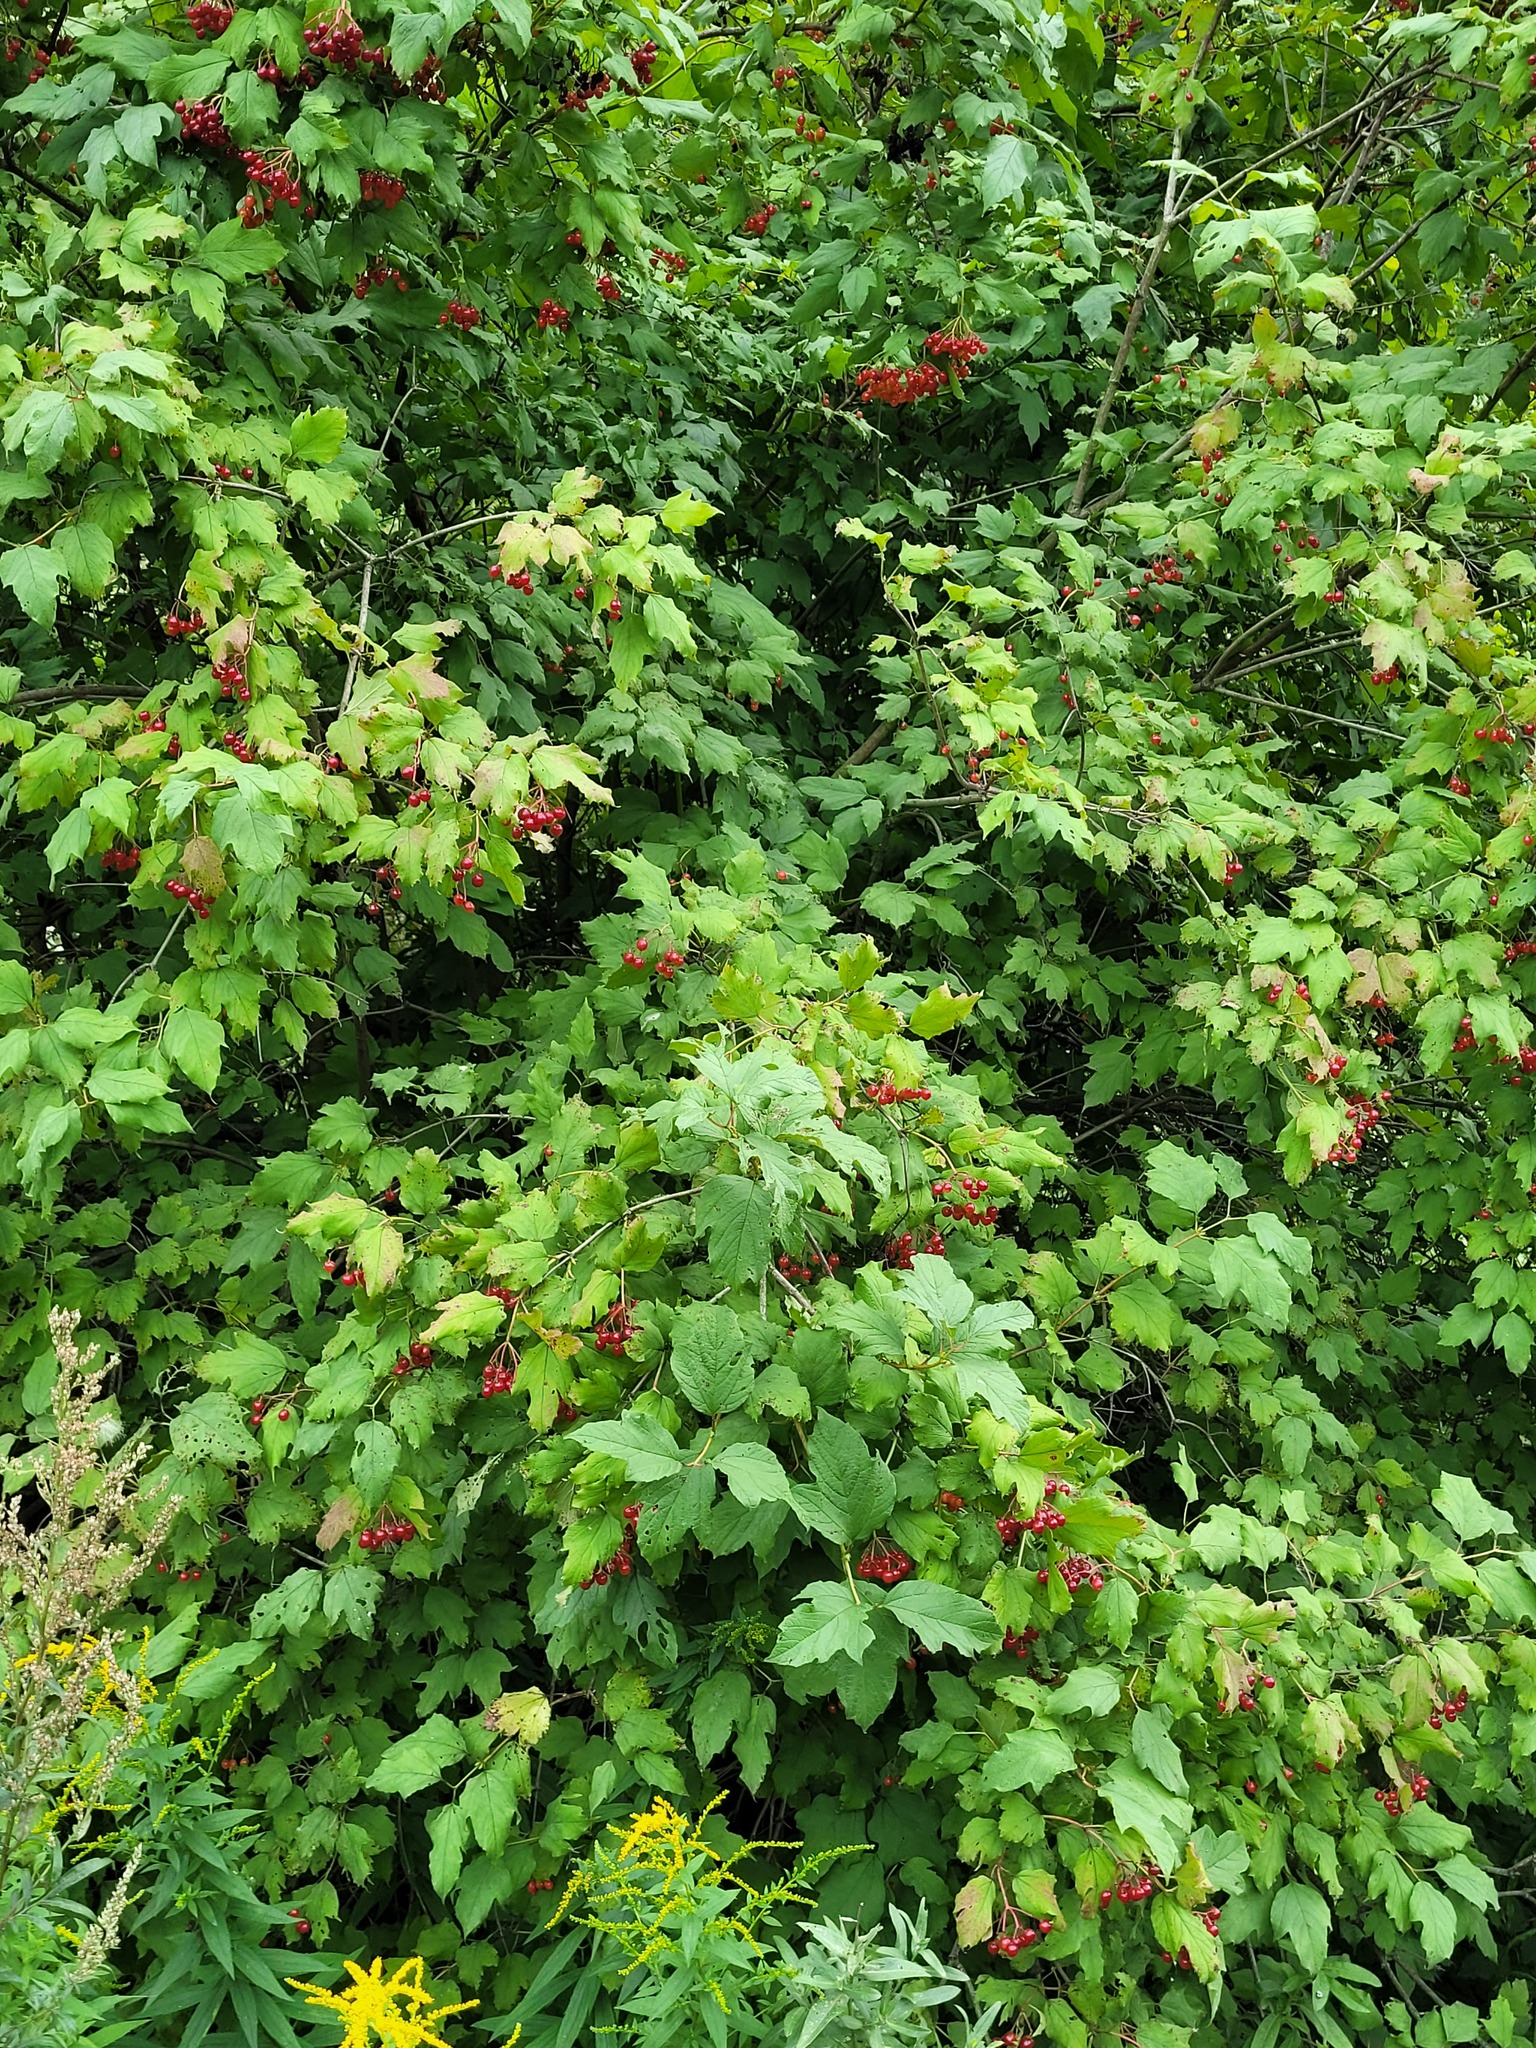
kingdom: Plantae
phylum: Tracheophyta
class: Magnoliopsida
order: Dipsacales
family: Viburnaceae
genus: Viburnum
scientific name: Viburnum opulus
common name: Guelder-rose
